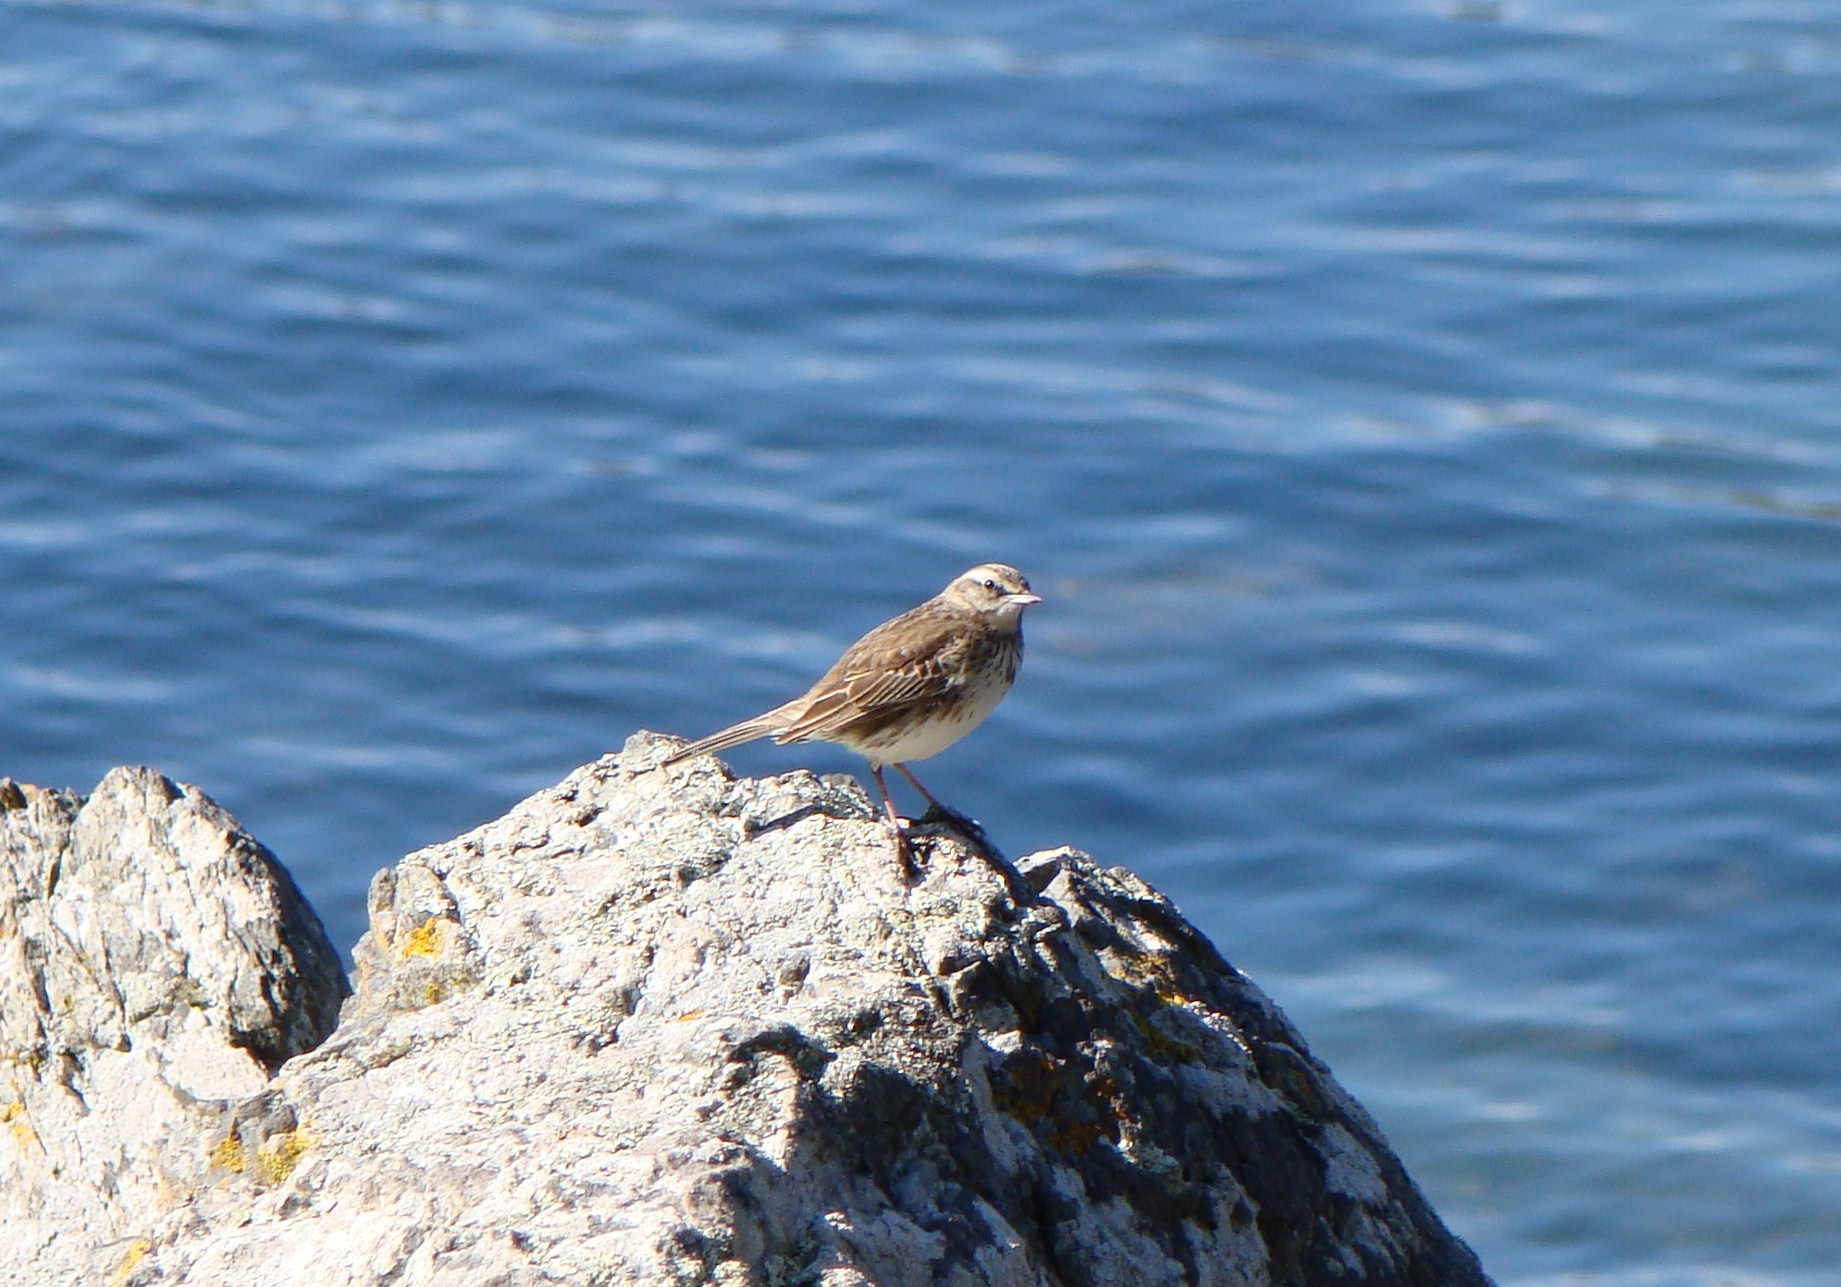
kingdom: Animalia
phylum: Chordata
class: Aves
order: Passeriformes
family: Motacillidae
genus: Anthus
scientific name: Anthus novaeseelandiae
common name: New zealand pipit
